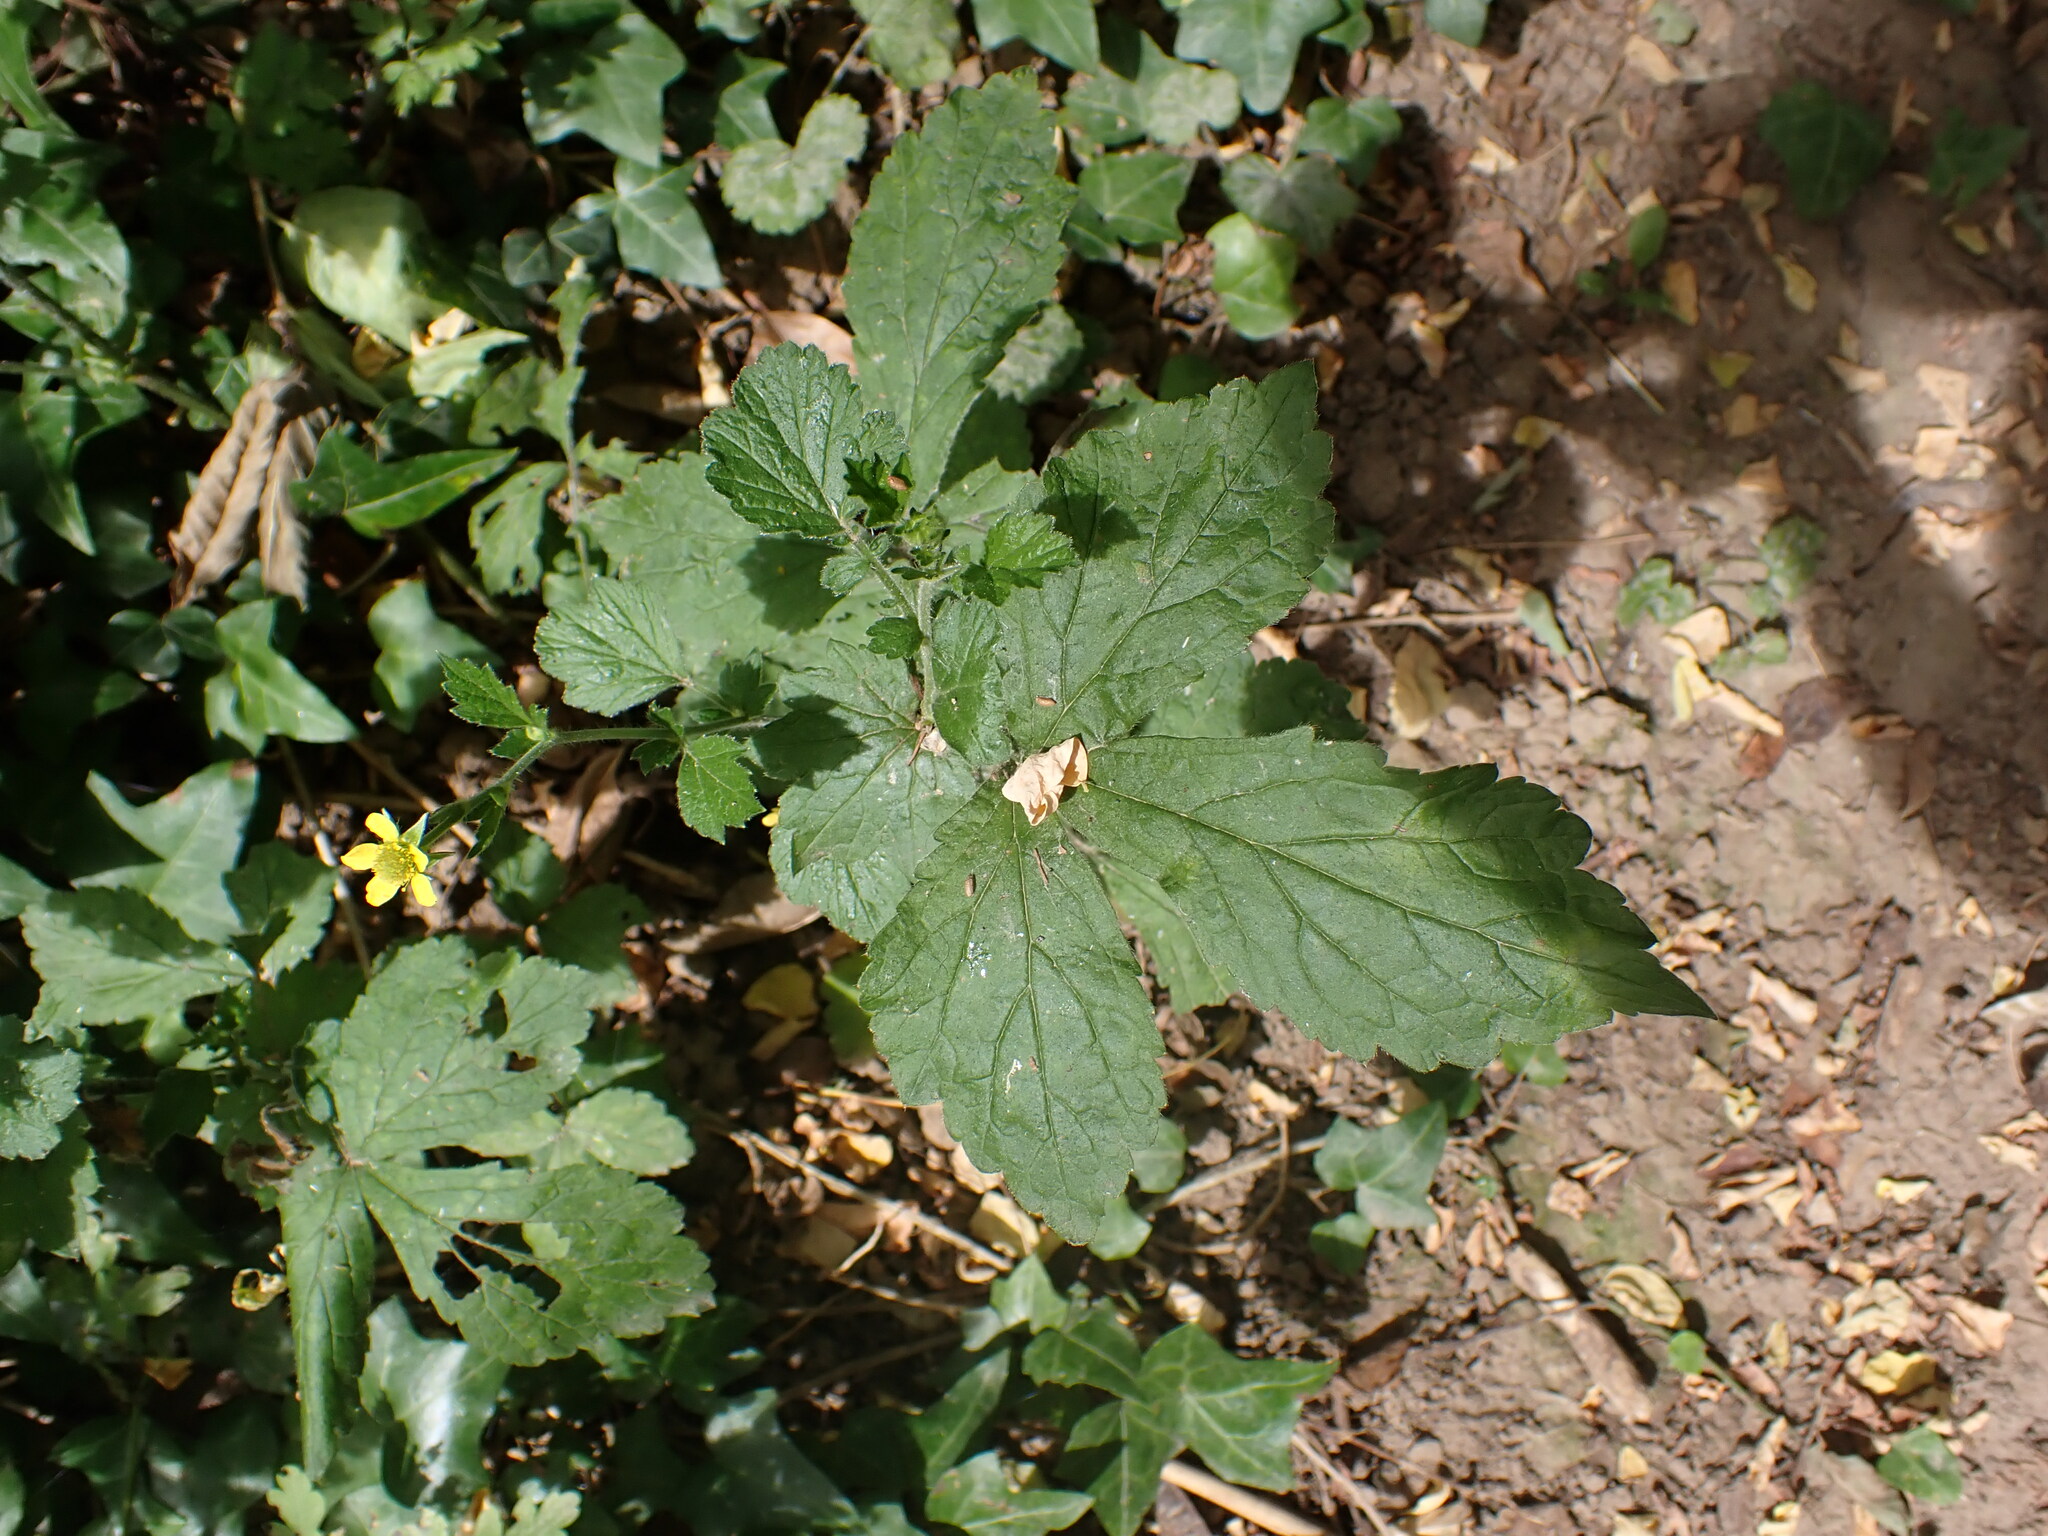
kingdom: Plantae
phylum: Tracheophyta
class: Magnoliopsida
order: Rosales
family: Rosaceae
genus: Geum
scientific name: Geum urbanum
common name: Wood avens
